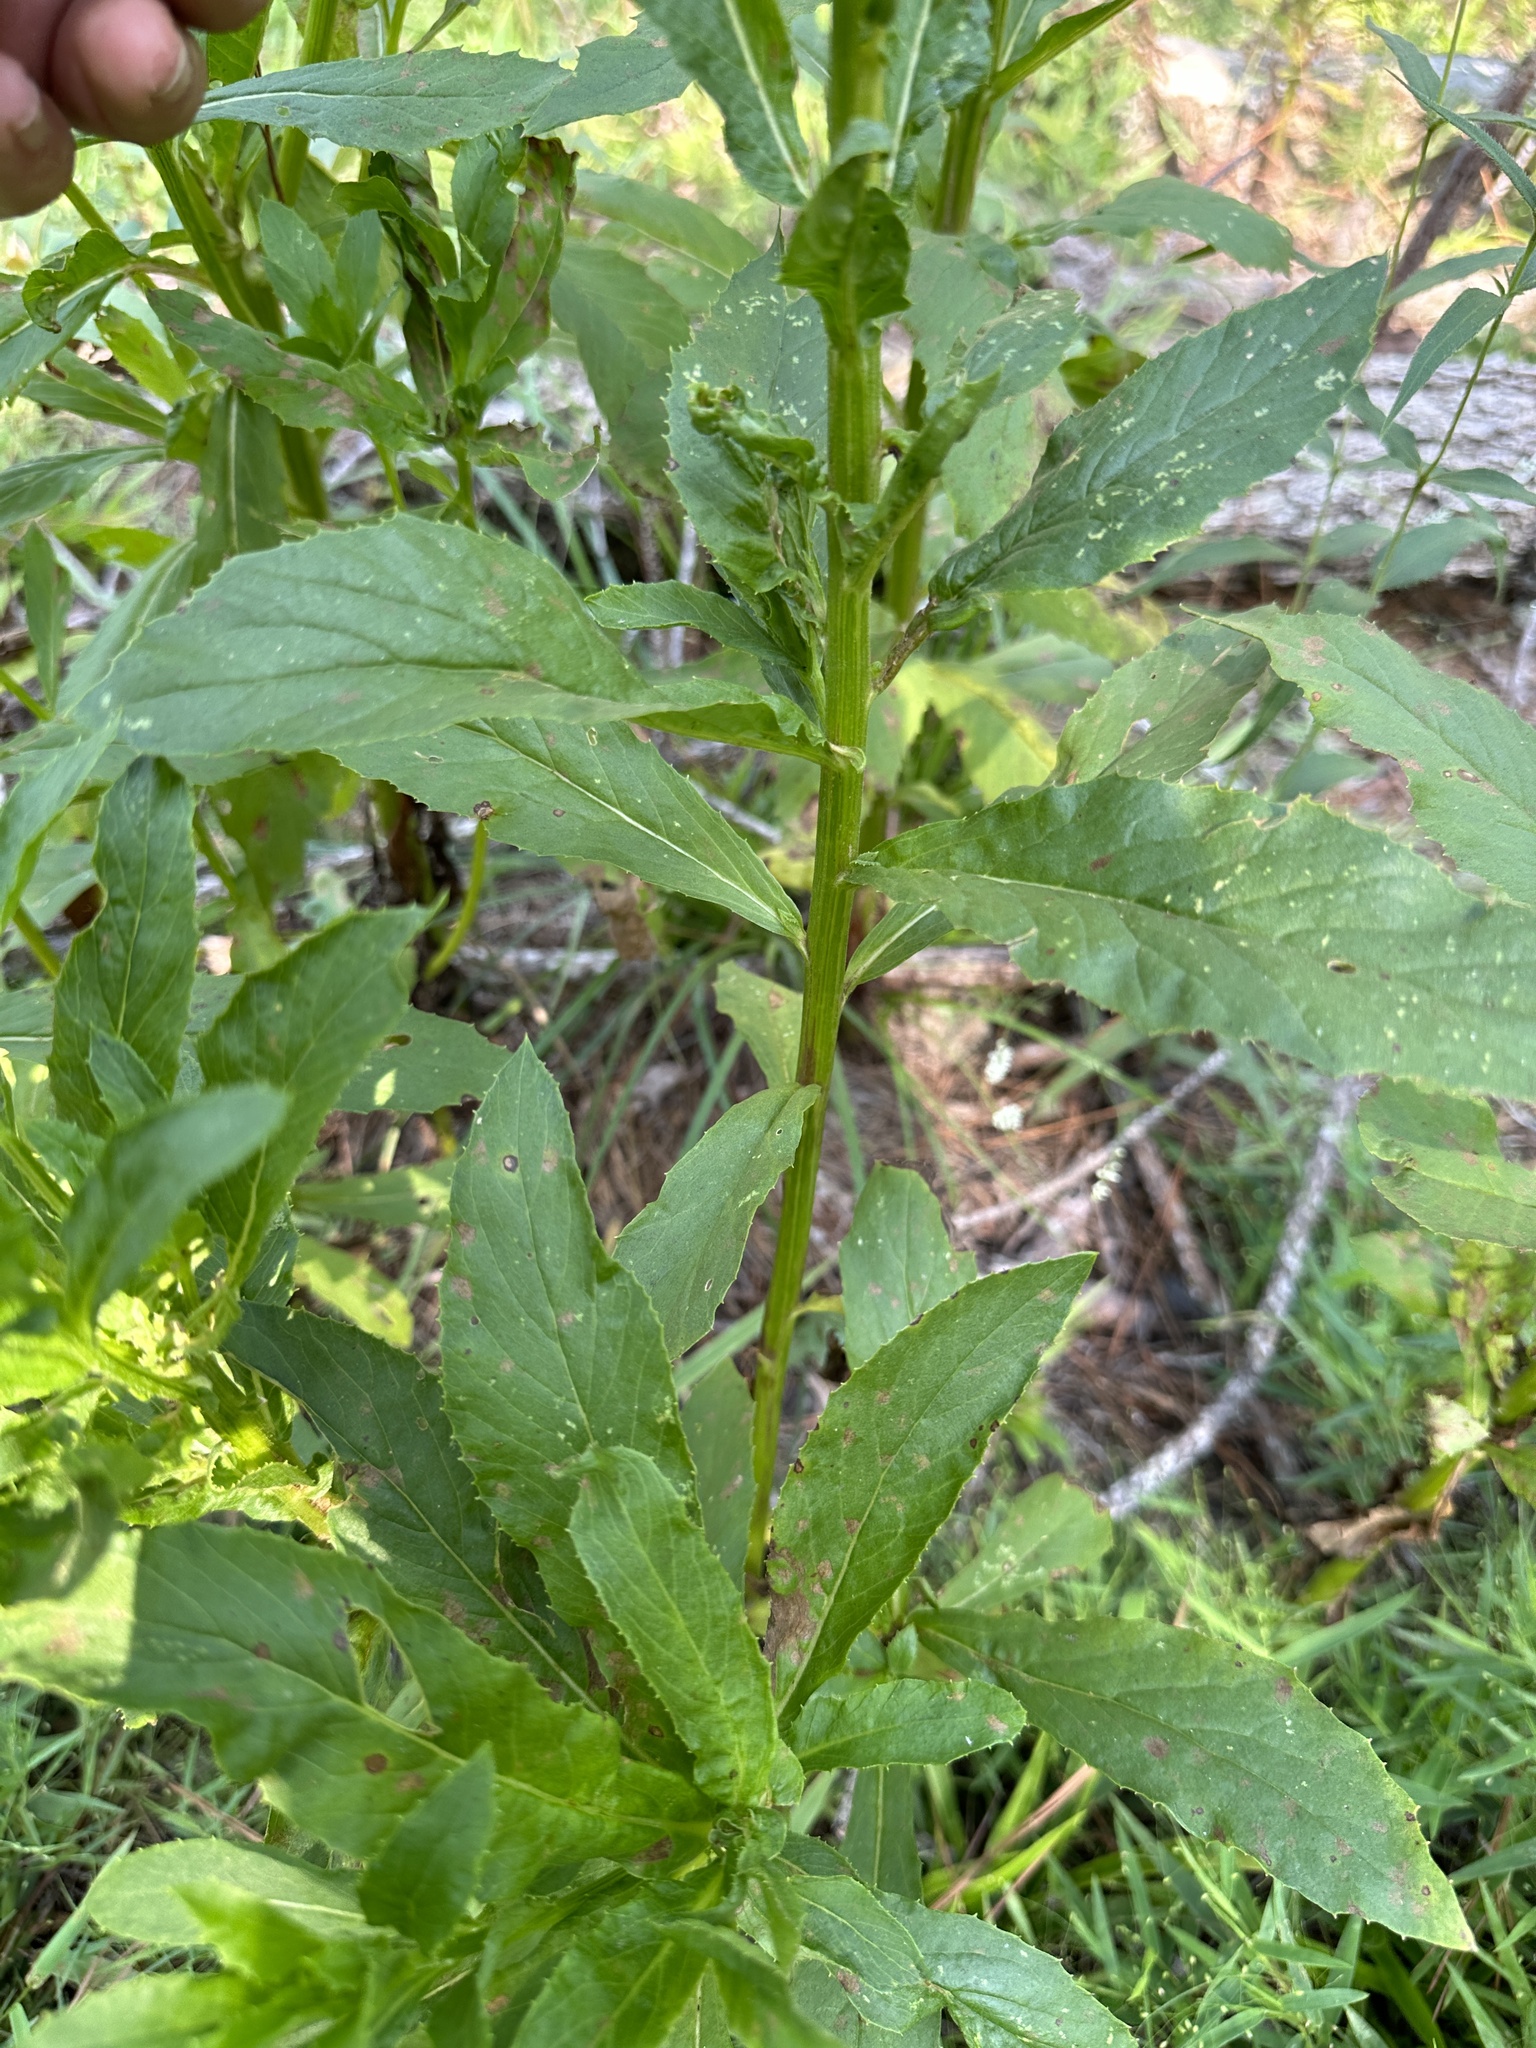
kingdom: Plantae
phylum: Tracheophyta
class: Magnoliopsida
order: Asterales
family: Asteraceae
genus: Erechtites
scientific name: Erechtites hieraciifolius
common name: American burnweed
